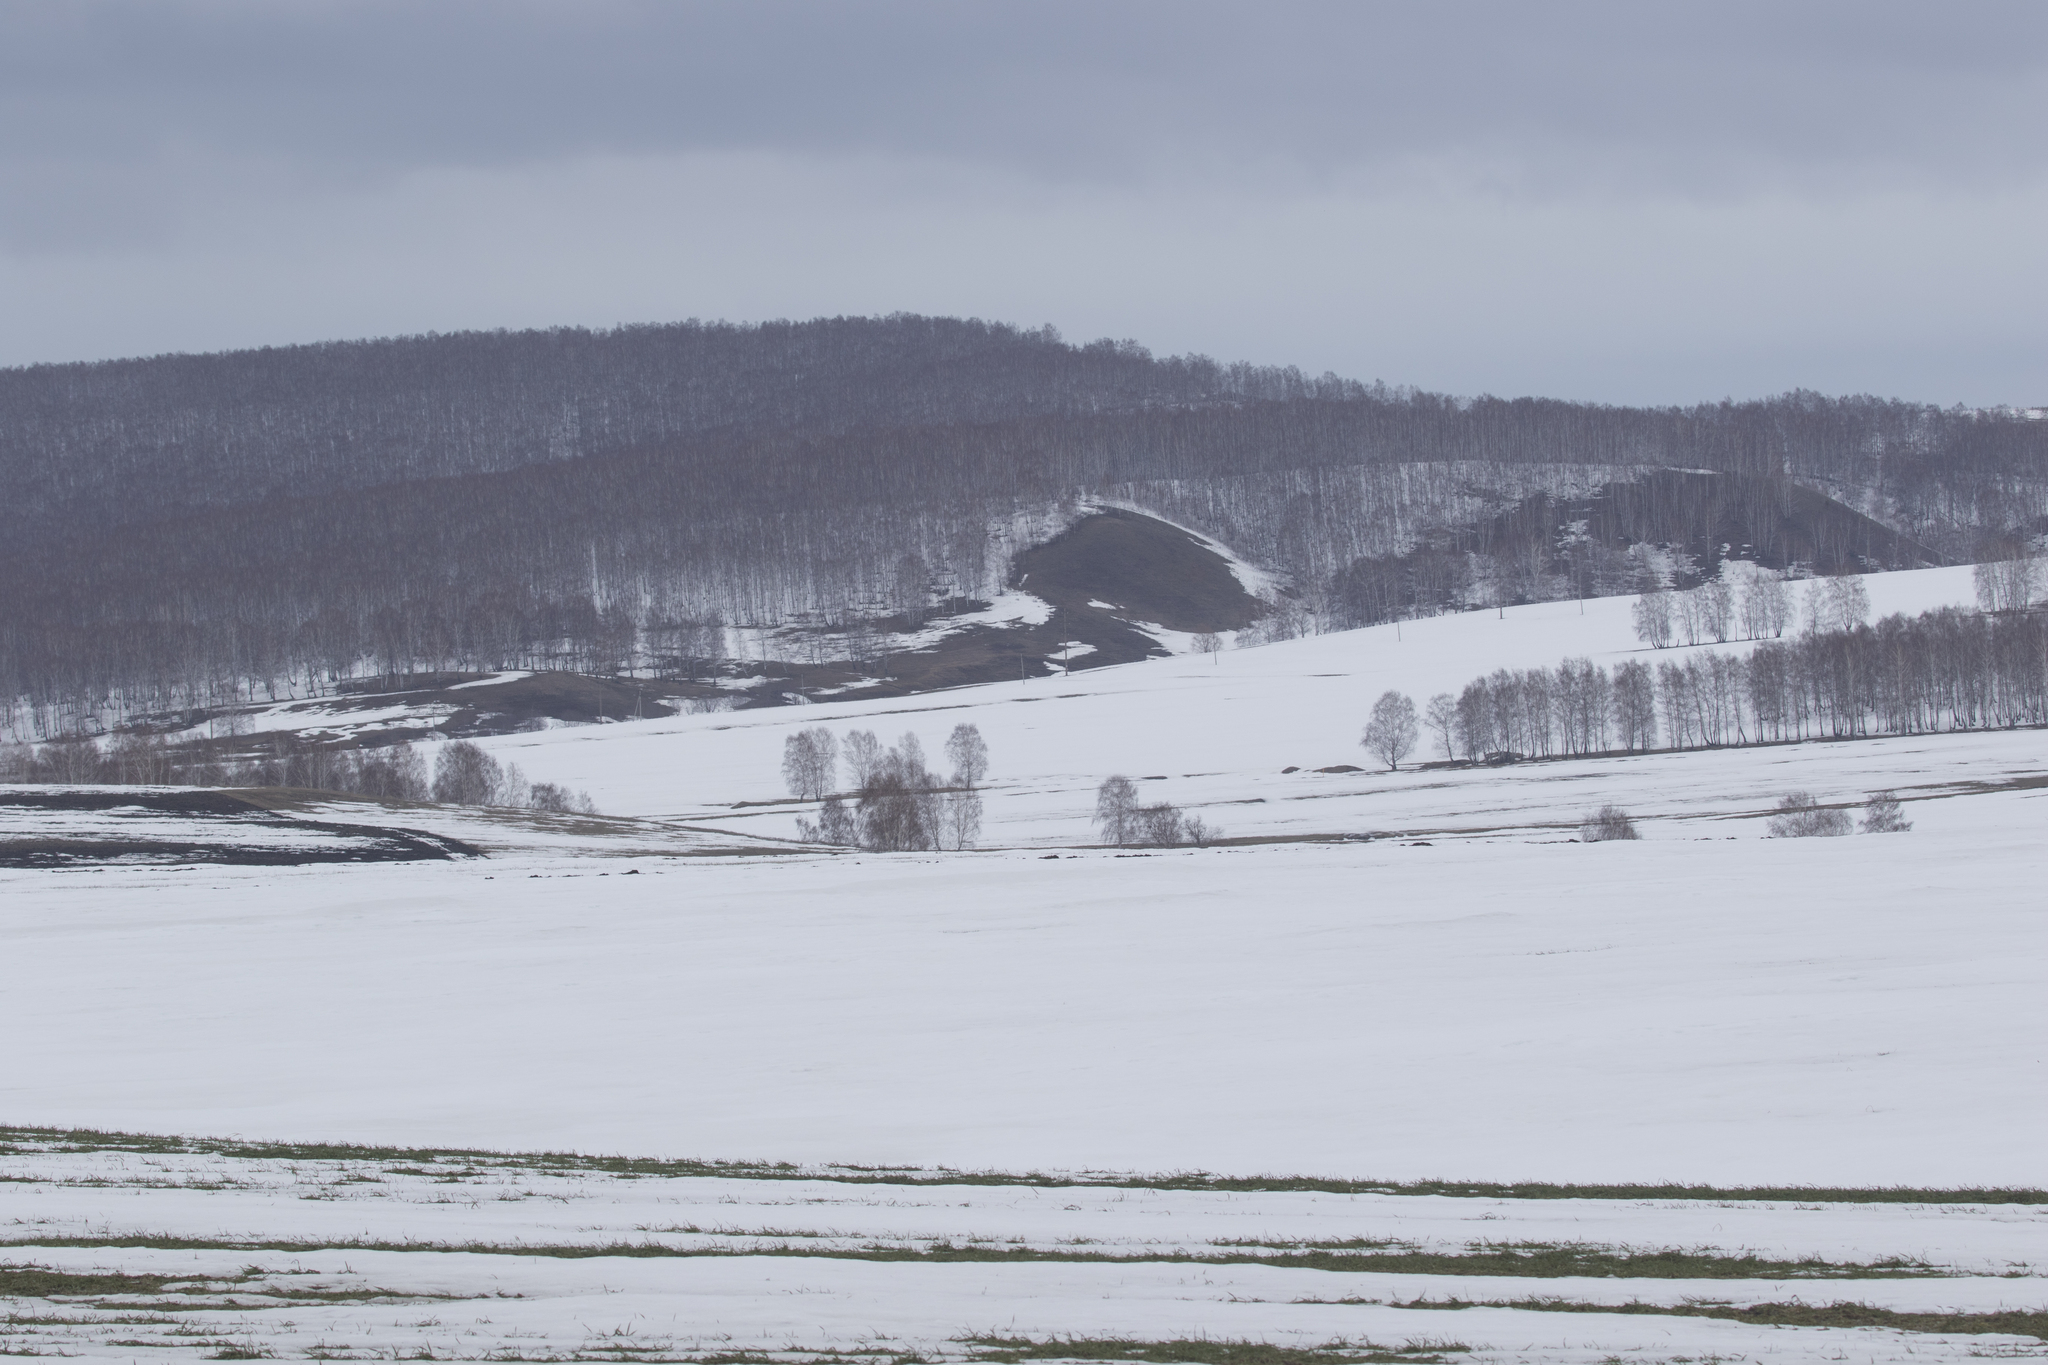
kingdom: Plantae
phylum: Tracheophyta
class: Magnoliopsida
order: Fagales
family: Betulaceae
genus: Betula
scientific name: Betula pendula
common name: Silver birch
